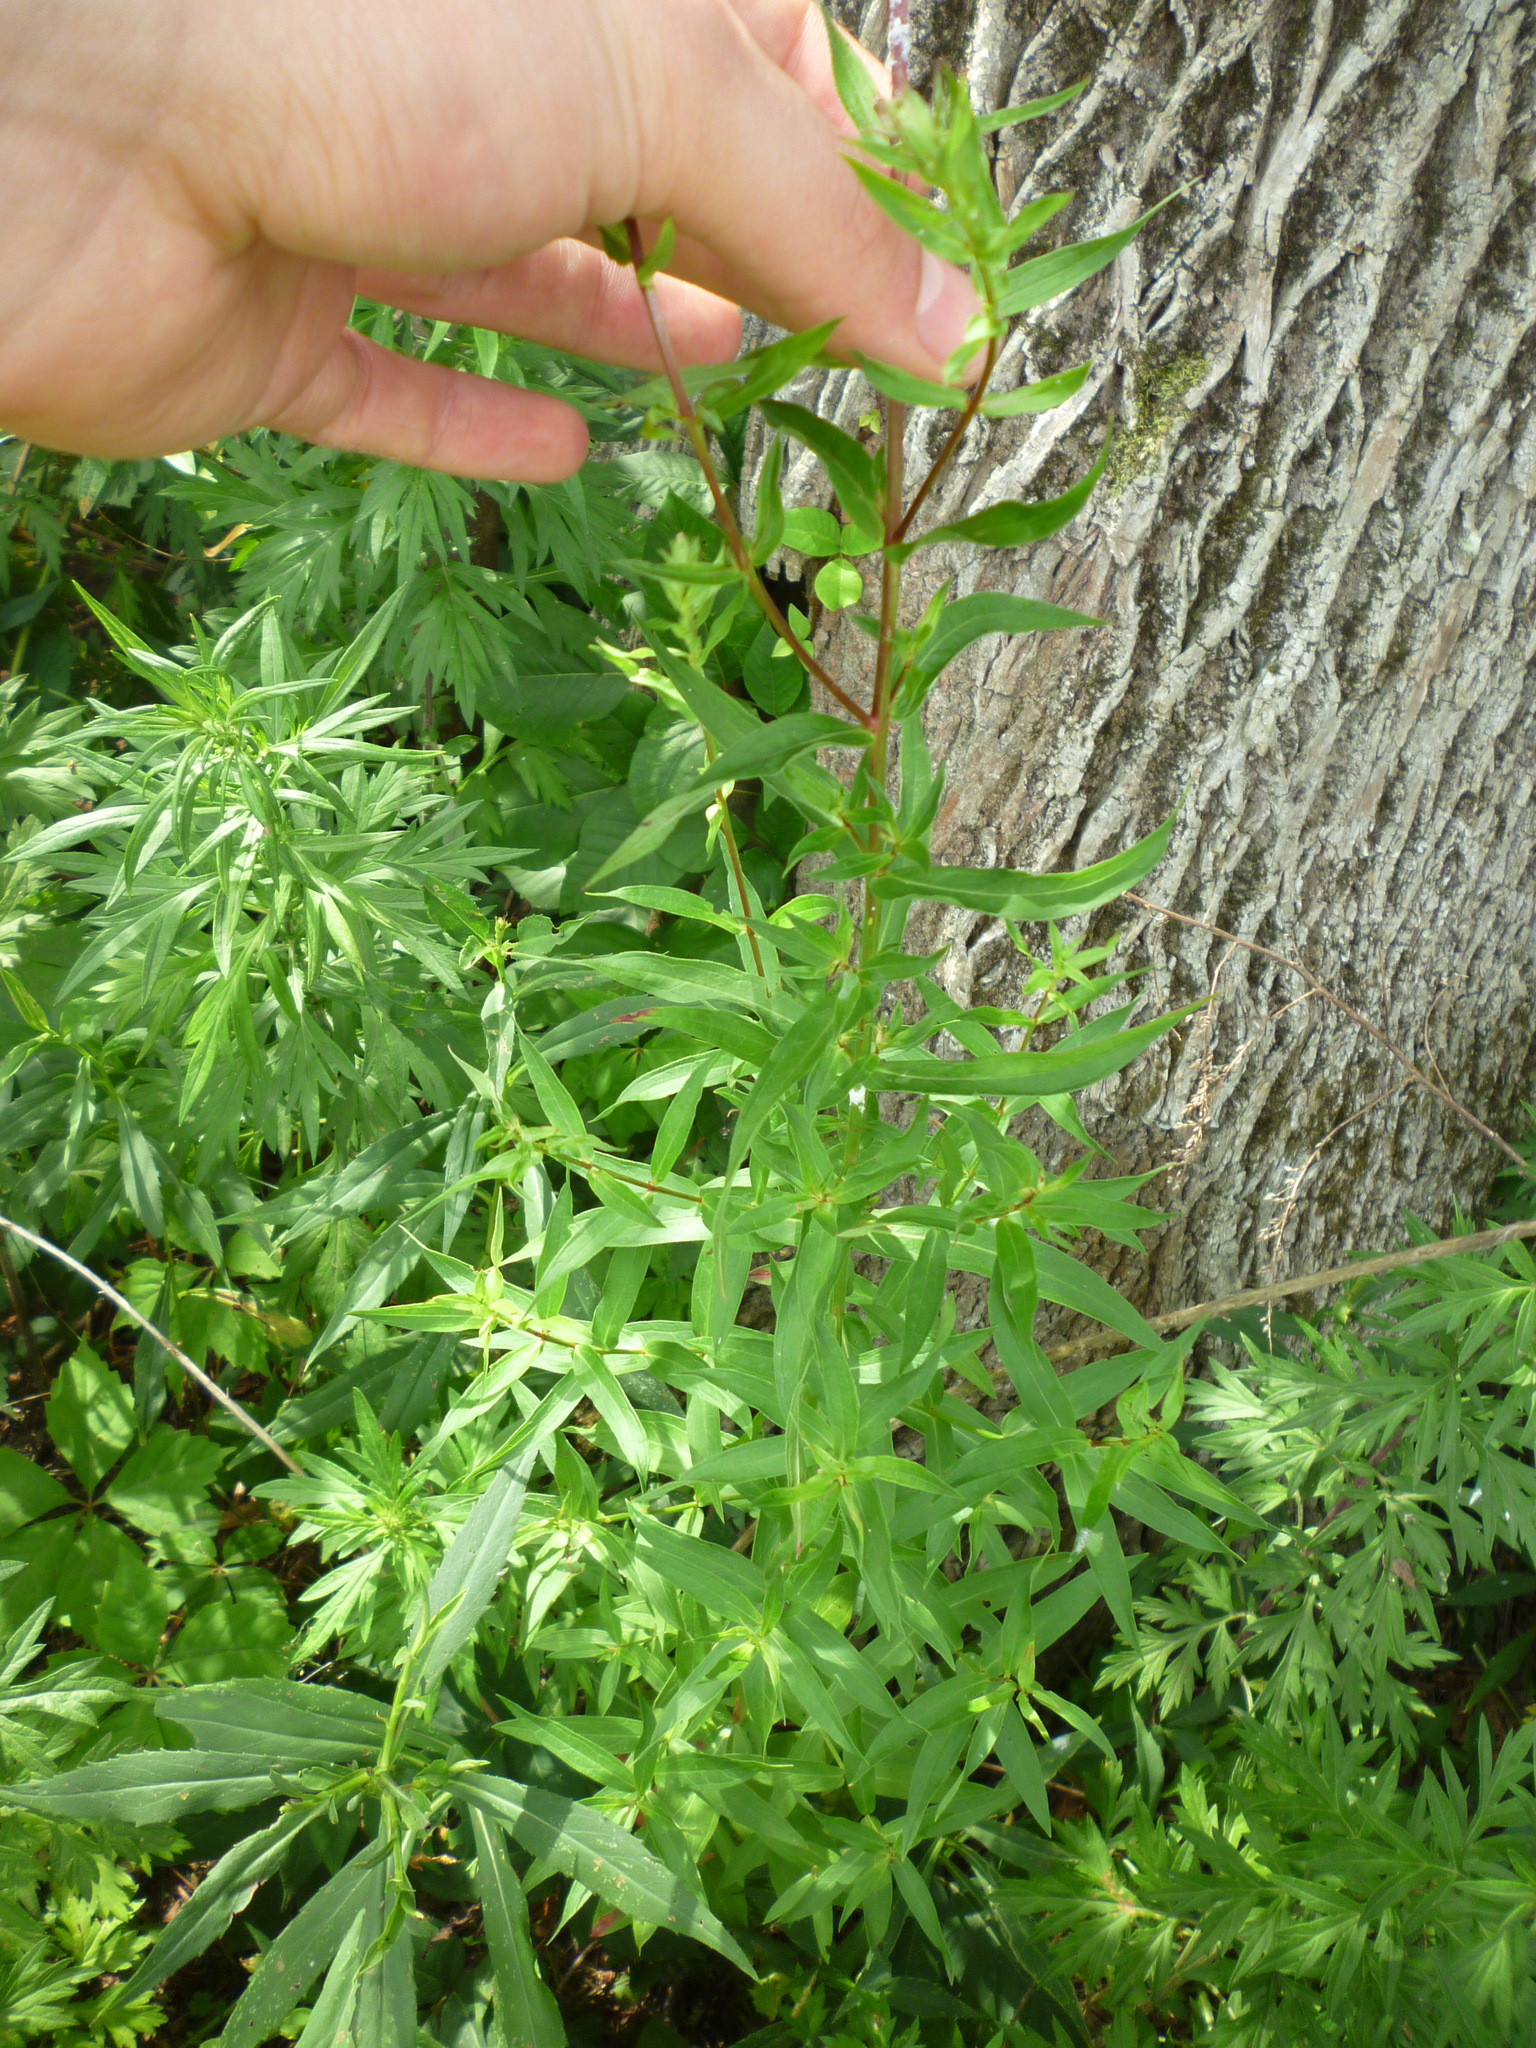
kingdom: Plantae
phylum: Tracheophyta
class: Magnoliopsida
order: Myrtales
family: Lythraceae
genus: Lythrum
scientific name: Lythrum salicaria
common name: Purple loosestrife
